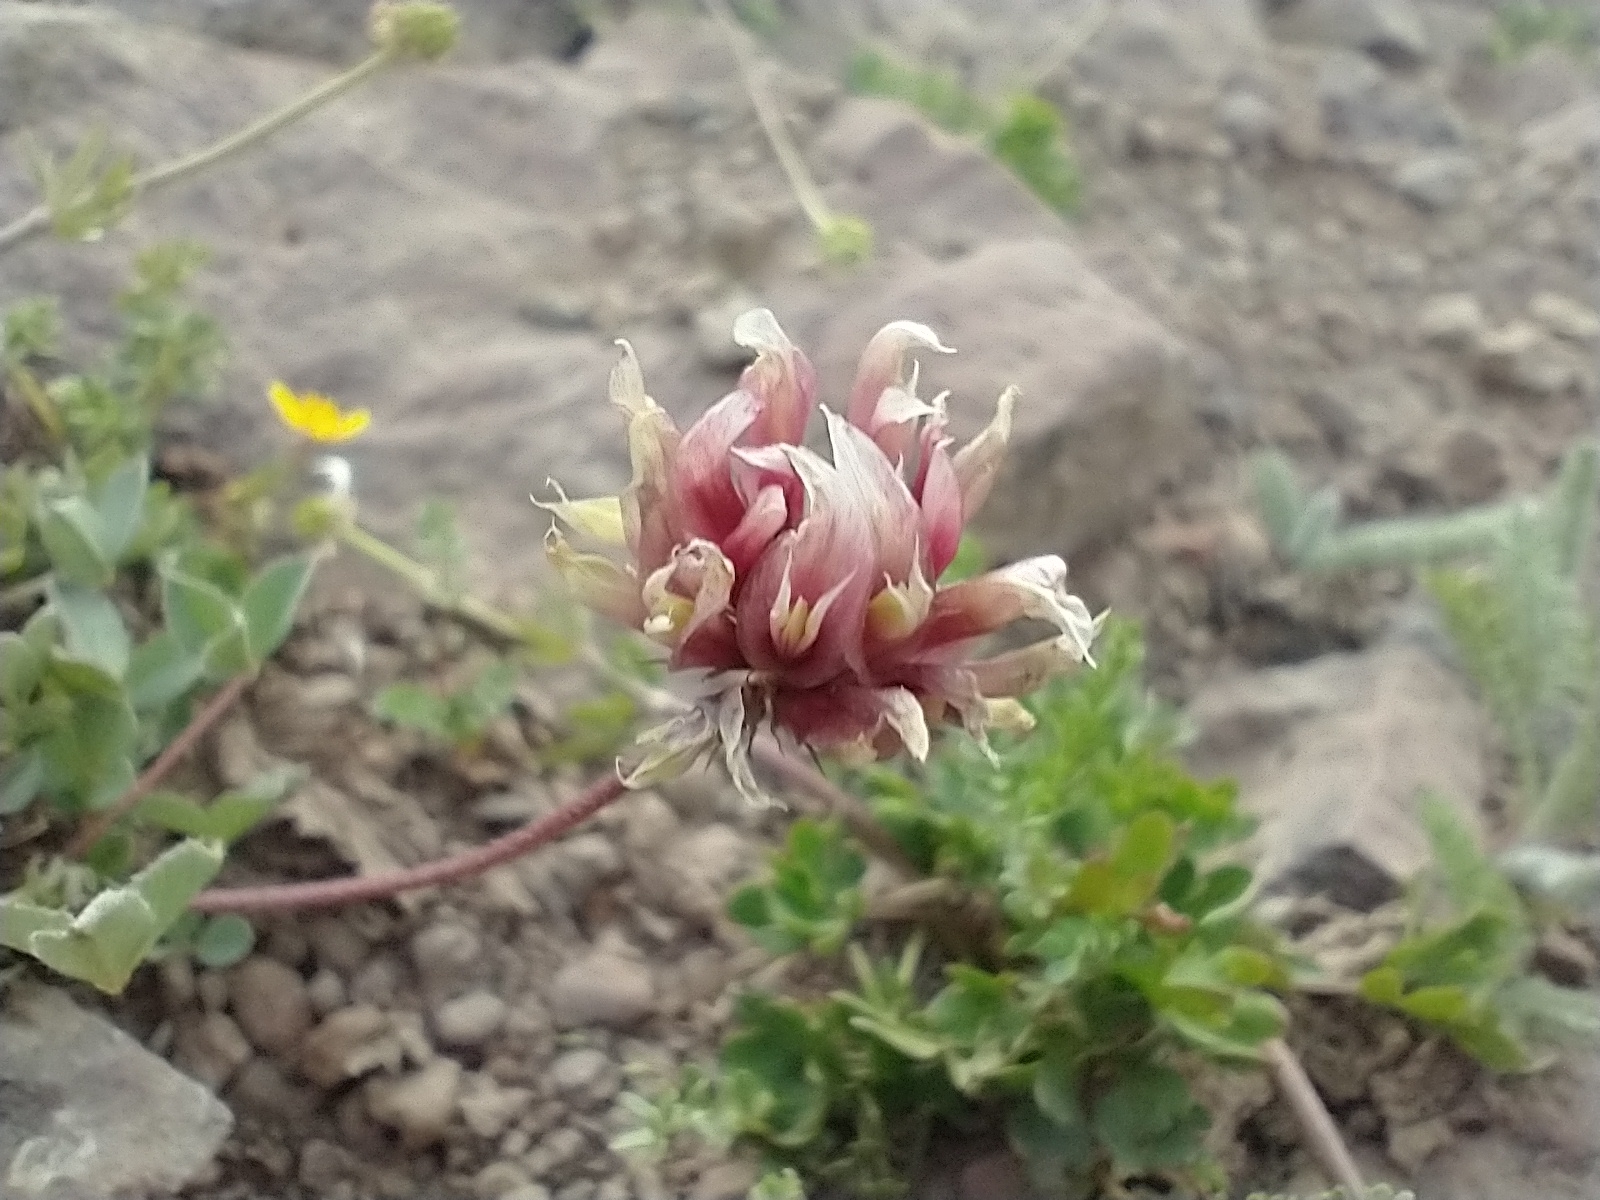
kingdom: Plantae
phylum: Tracheophyta
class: Magnoliopsida
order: Fabales
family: Fabaceae
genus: Trifolium
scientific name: Trifolium longipes
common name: Long-stalk clover
